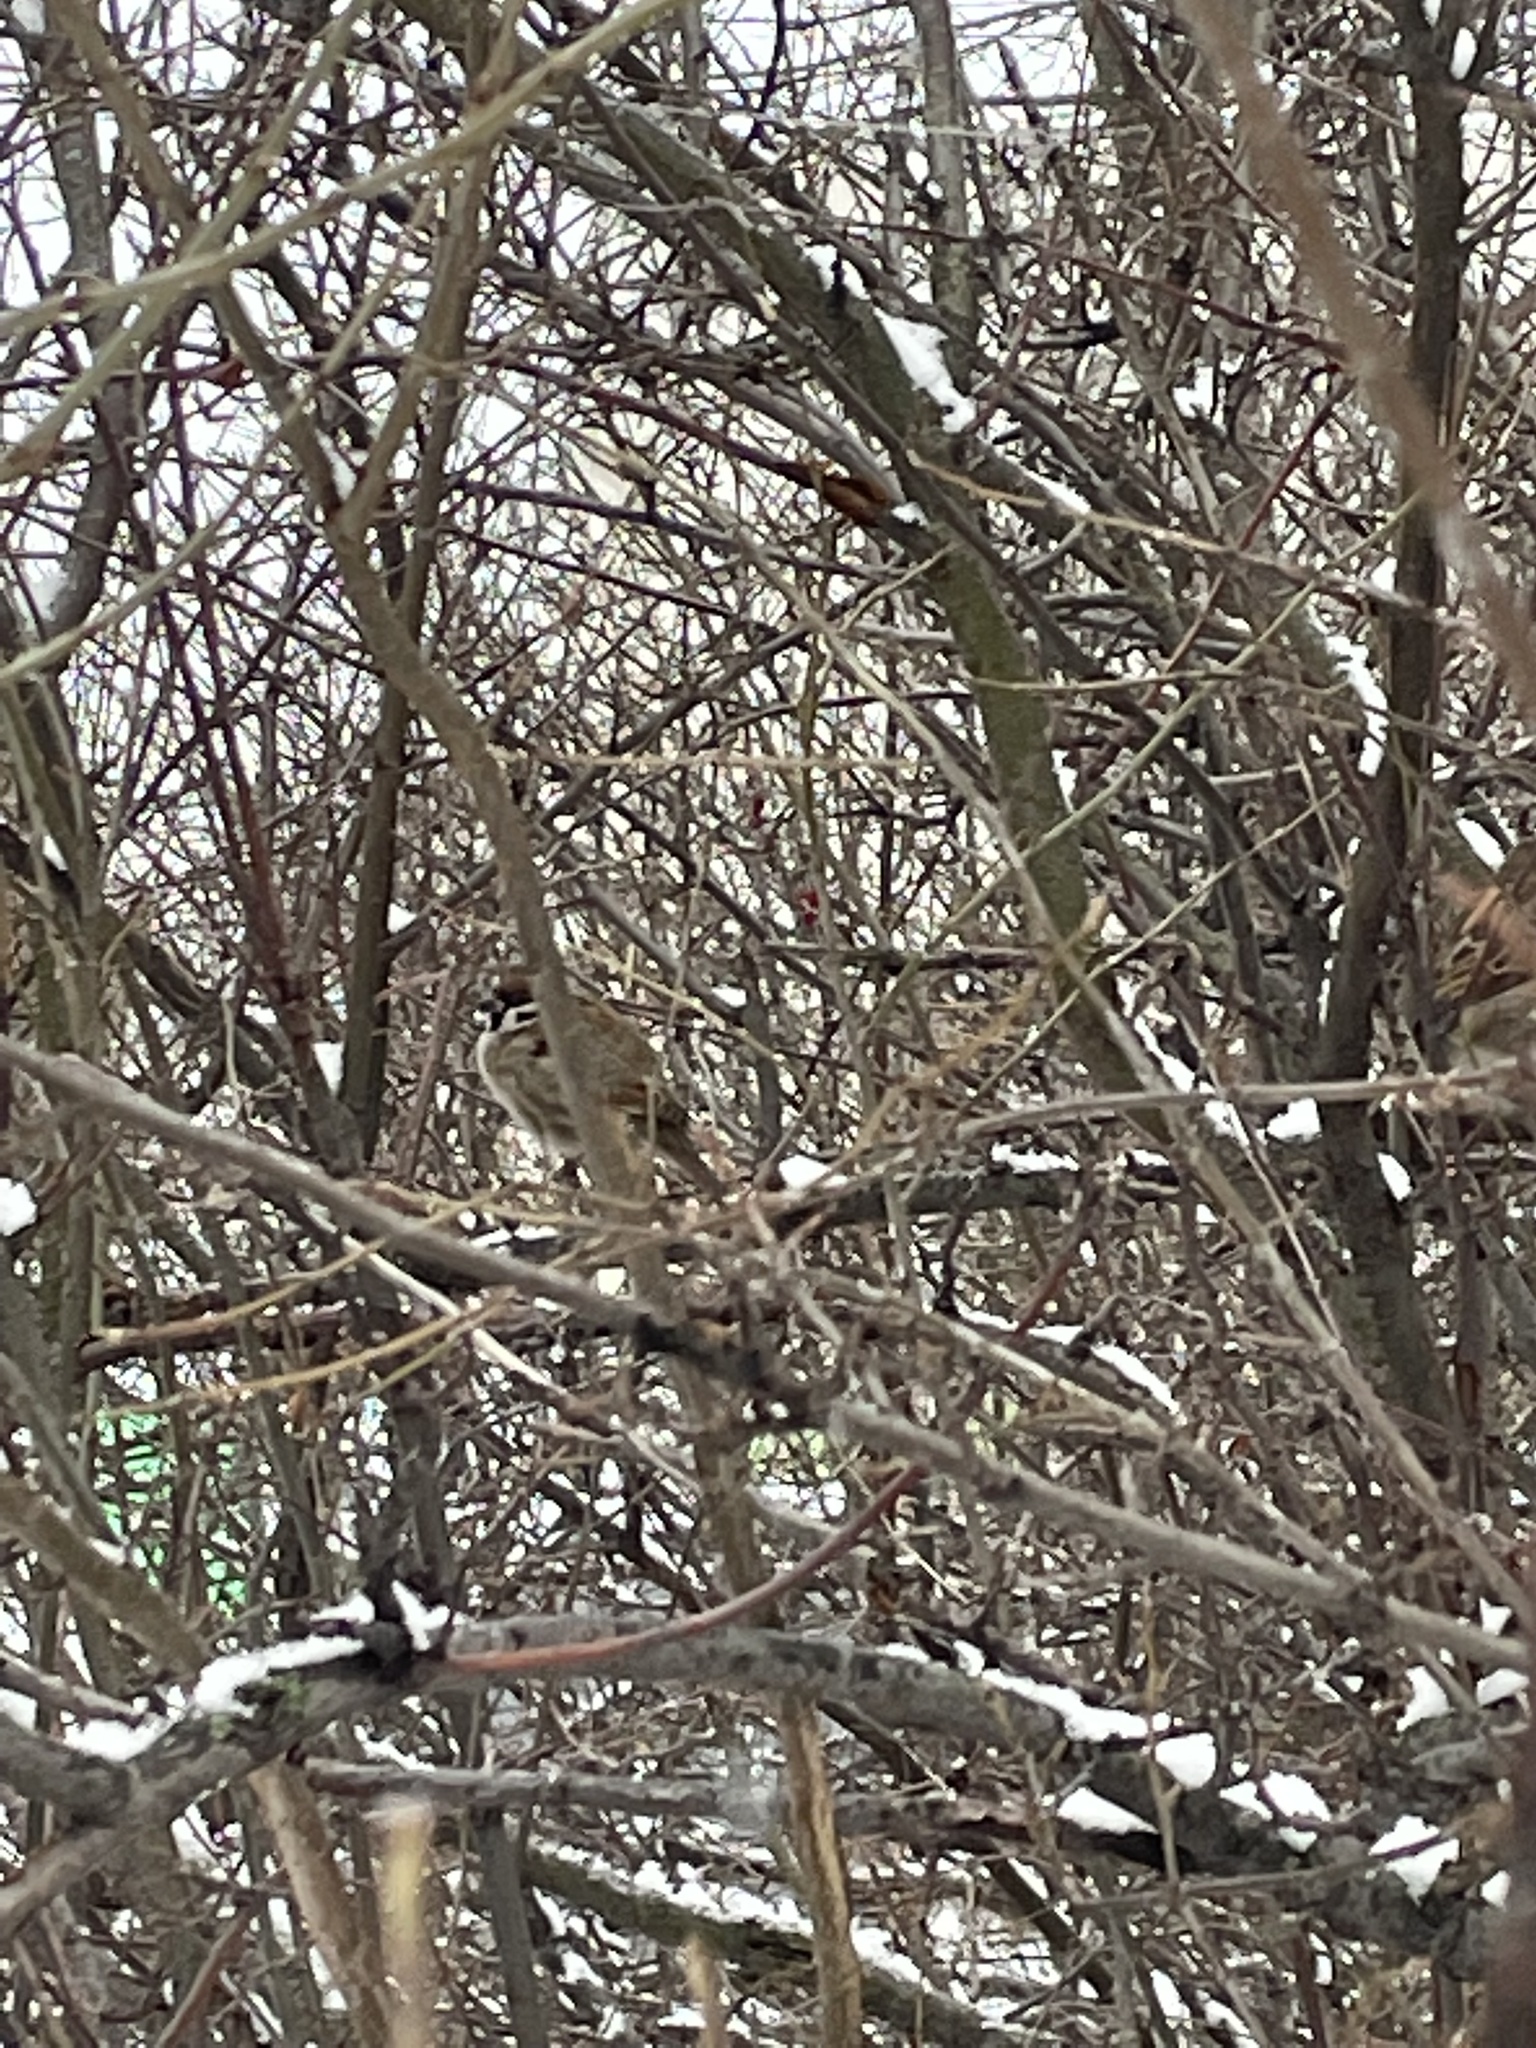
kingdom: Animalia
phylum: Chordata
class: Aves
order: Passeriformes
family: Passeridae
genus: Passer
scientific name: Passer montanus
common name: Eurasian tree sparrow
